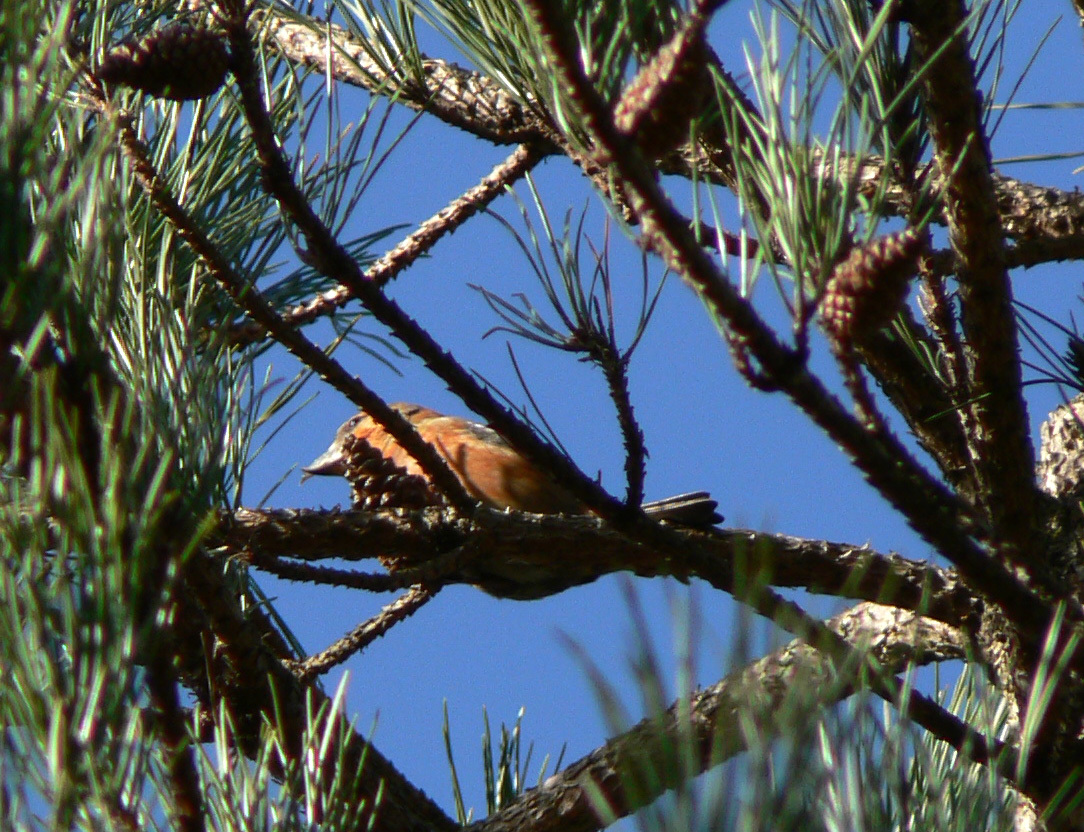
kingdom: Animalia
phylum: Chordata
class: Aves
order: Passeriformes
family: Fringillidae
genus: Loxia
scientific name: Loxia curvirostra
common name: Red crossbill
